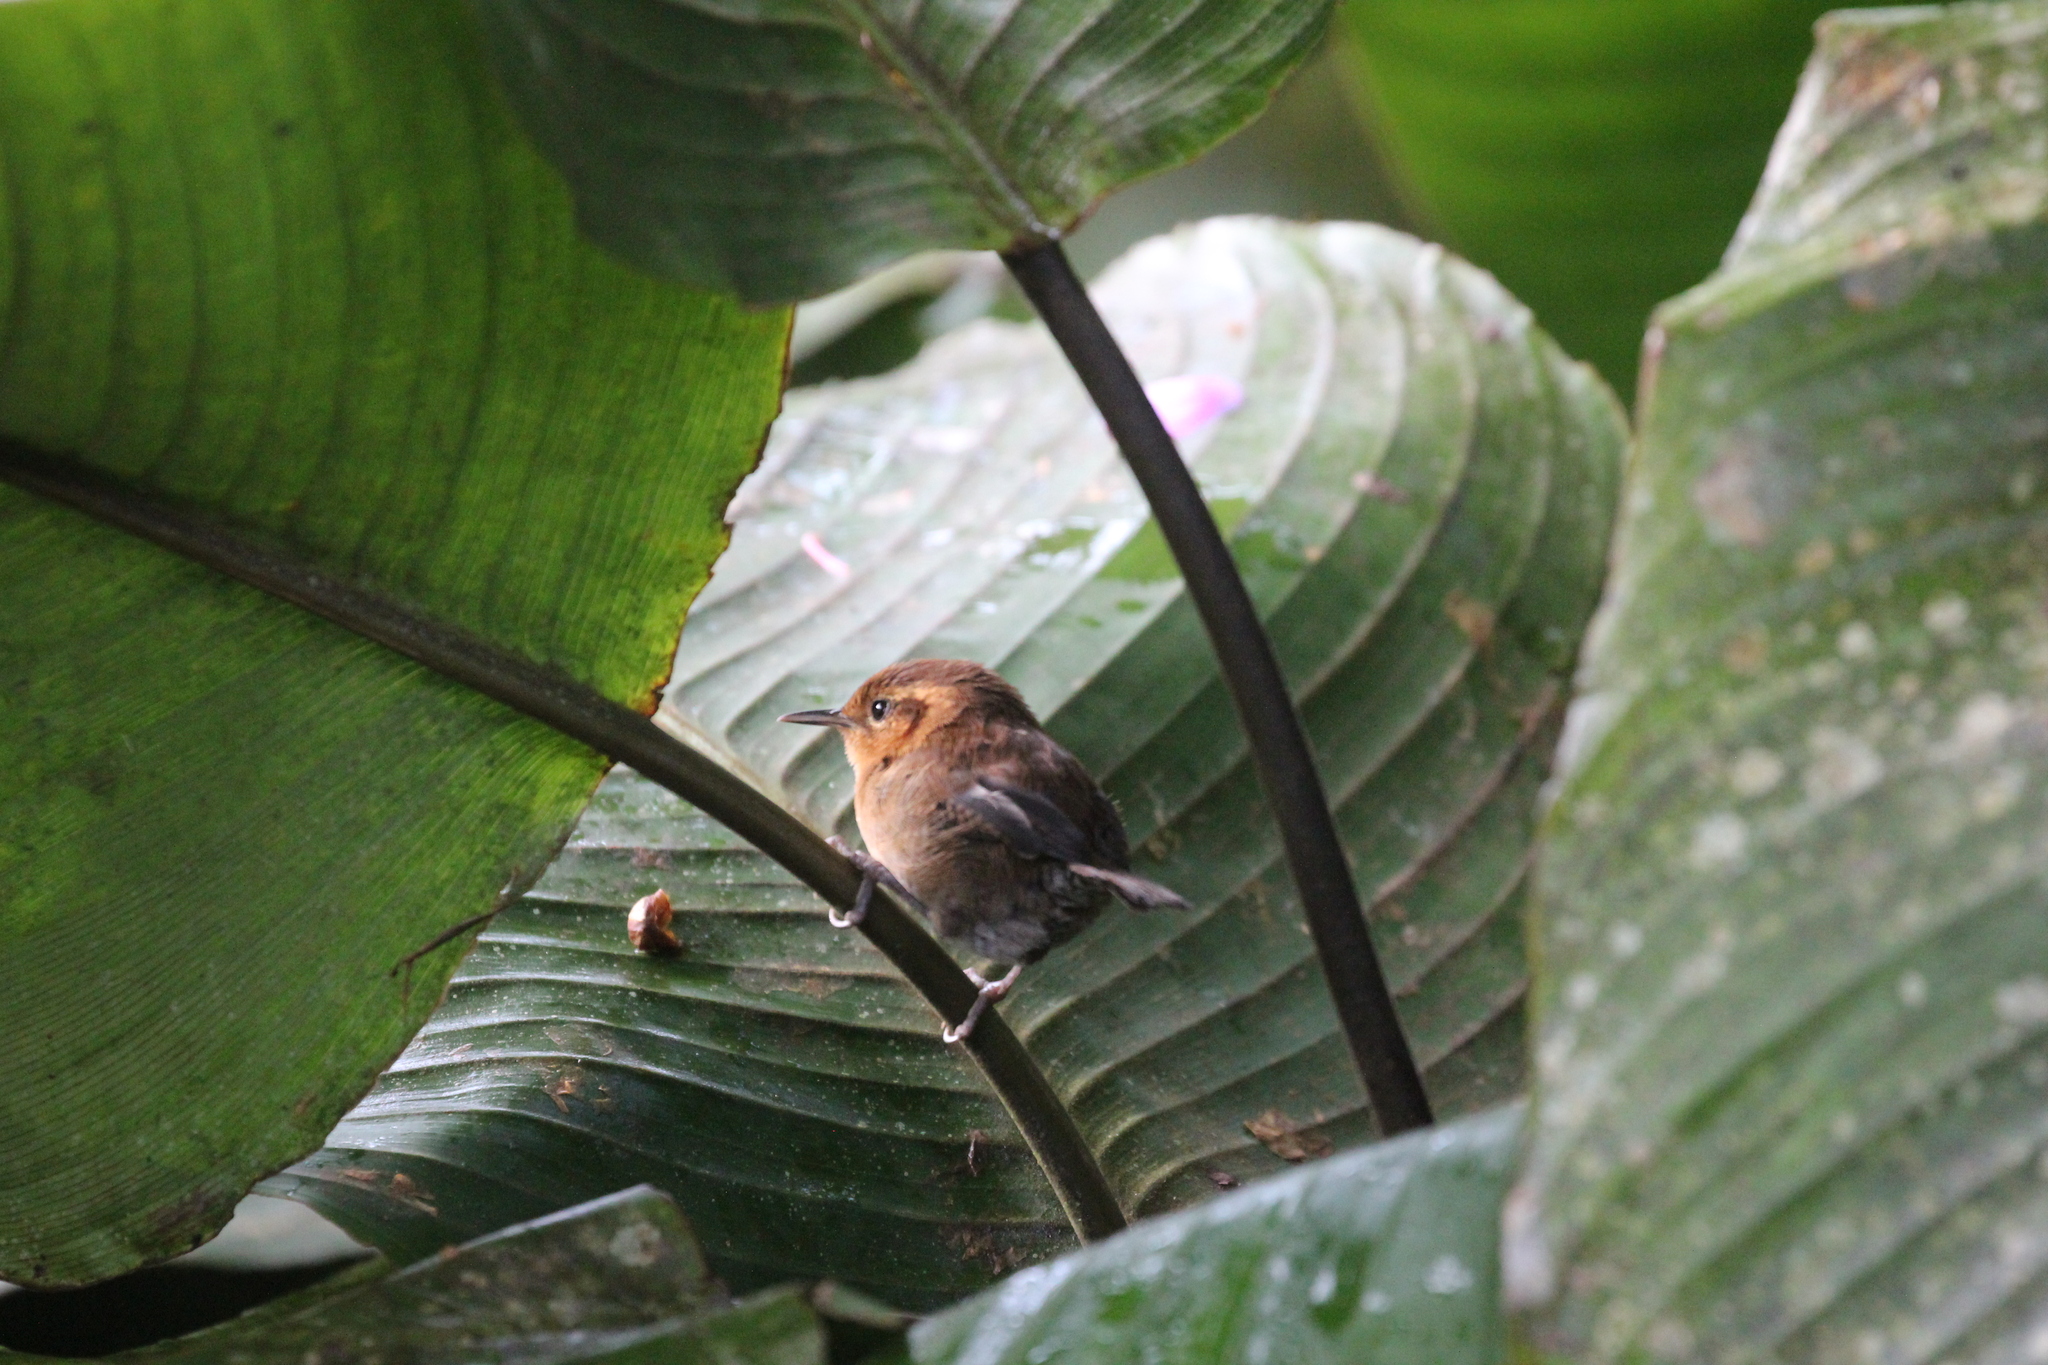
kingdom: Animalia
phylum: Chordata
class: Aves
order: Passeriformes
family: Troglodytidae
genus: Troglodytes
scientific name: Troglodytes solstitialis
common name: Mountain wren
